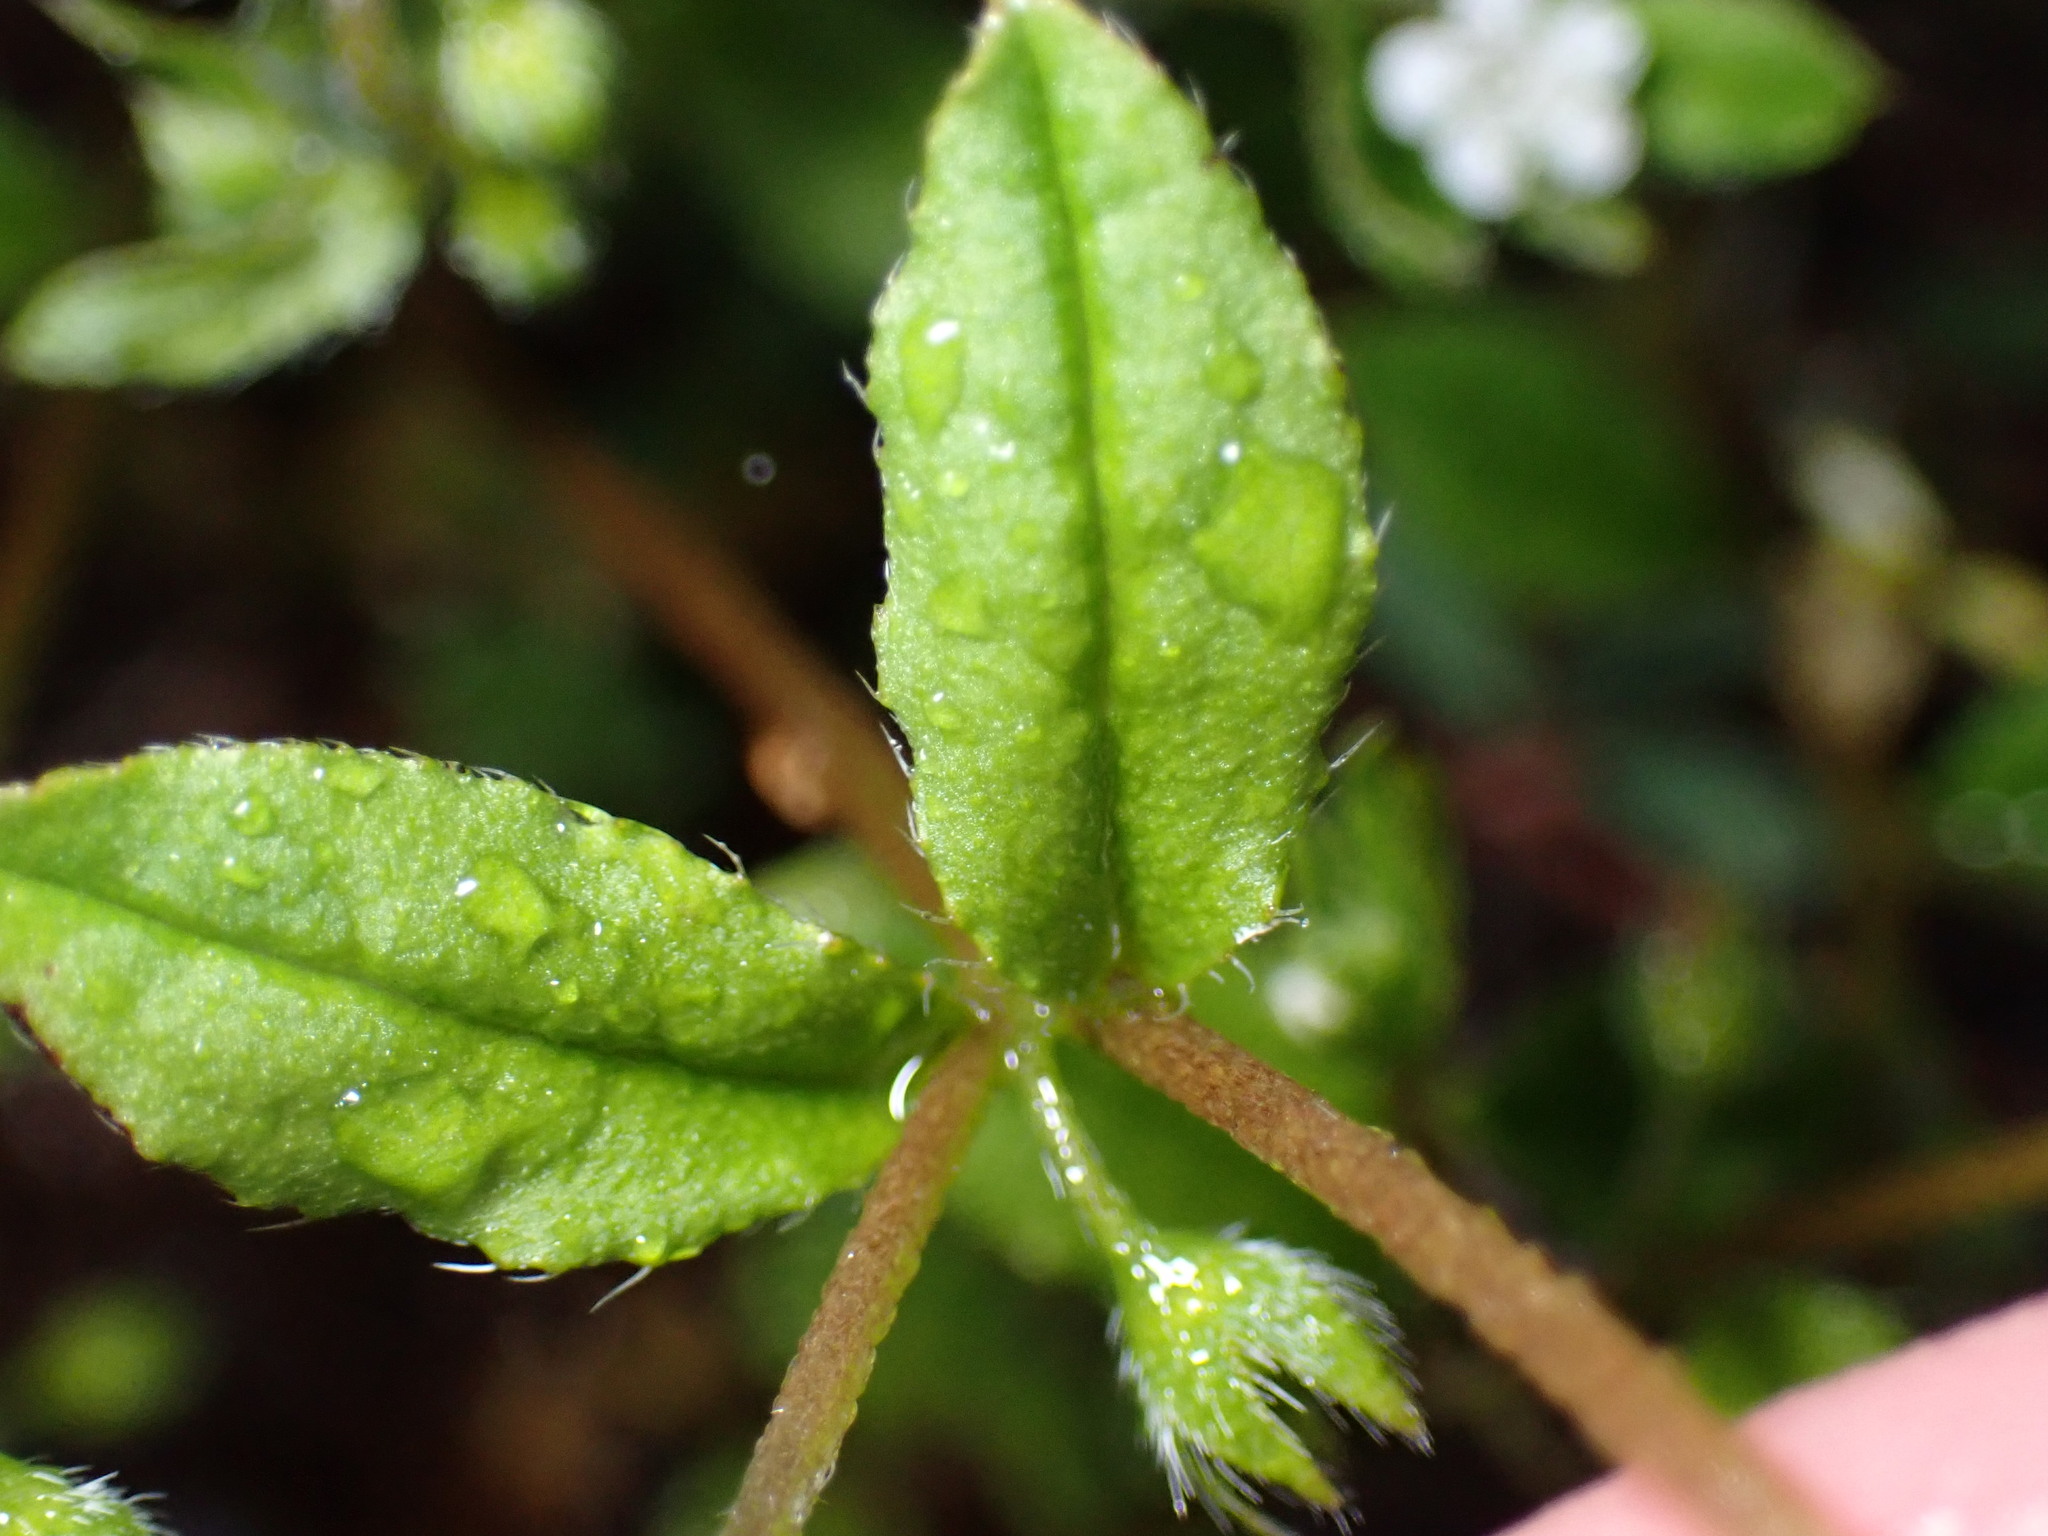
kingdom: Plantae
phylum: Tracheophyta
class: Magnoliopsida
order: Boraginales
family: Boraginaceae
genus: Trigonotis
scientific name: Trigonotis peduncularis
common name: Cucumber herb
